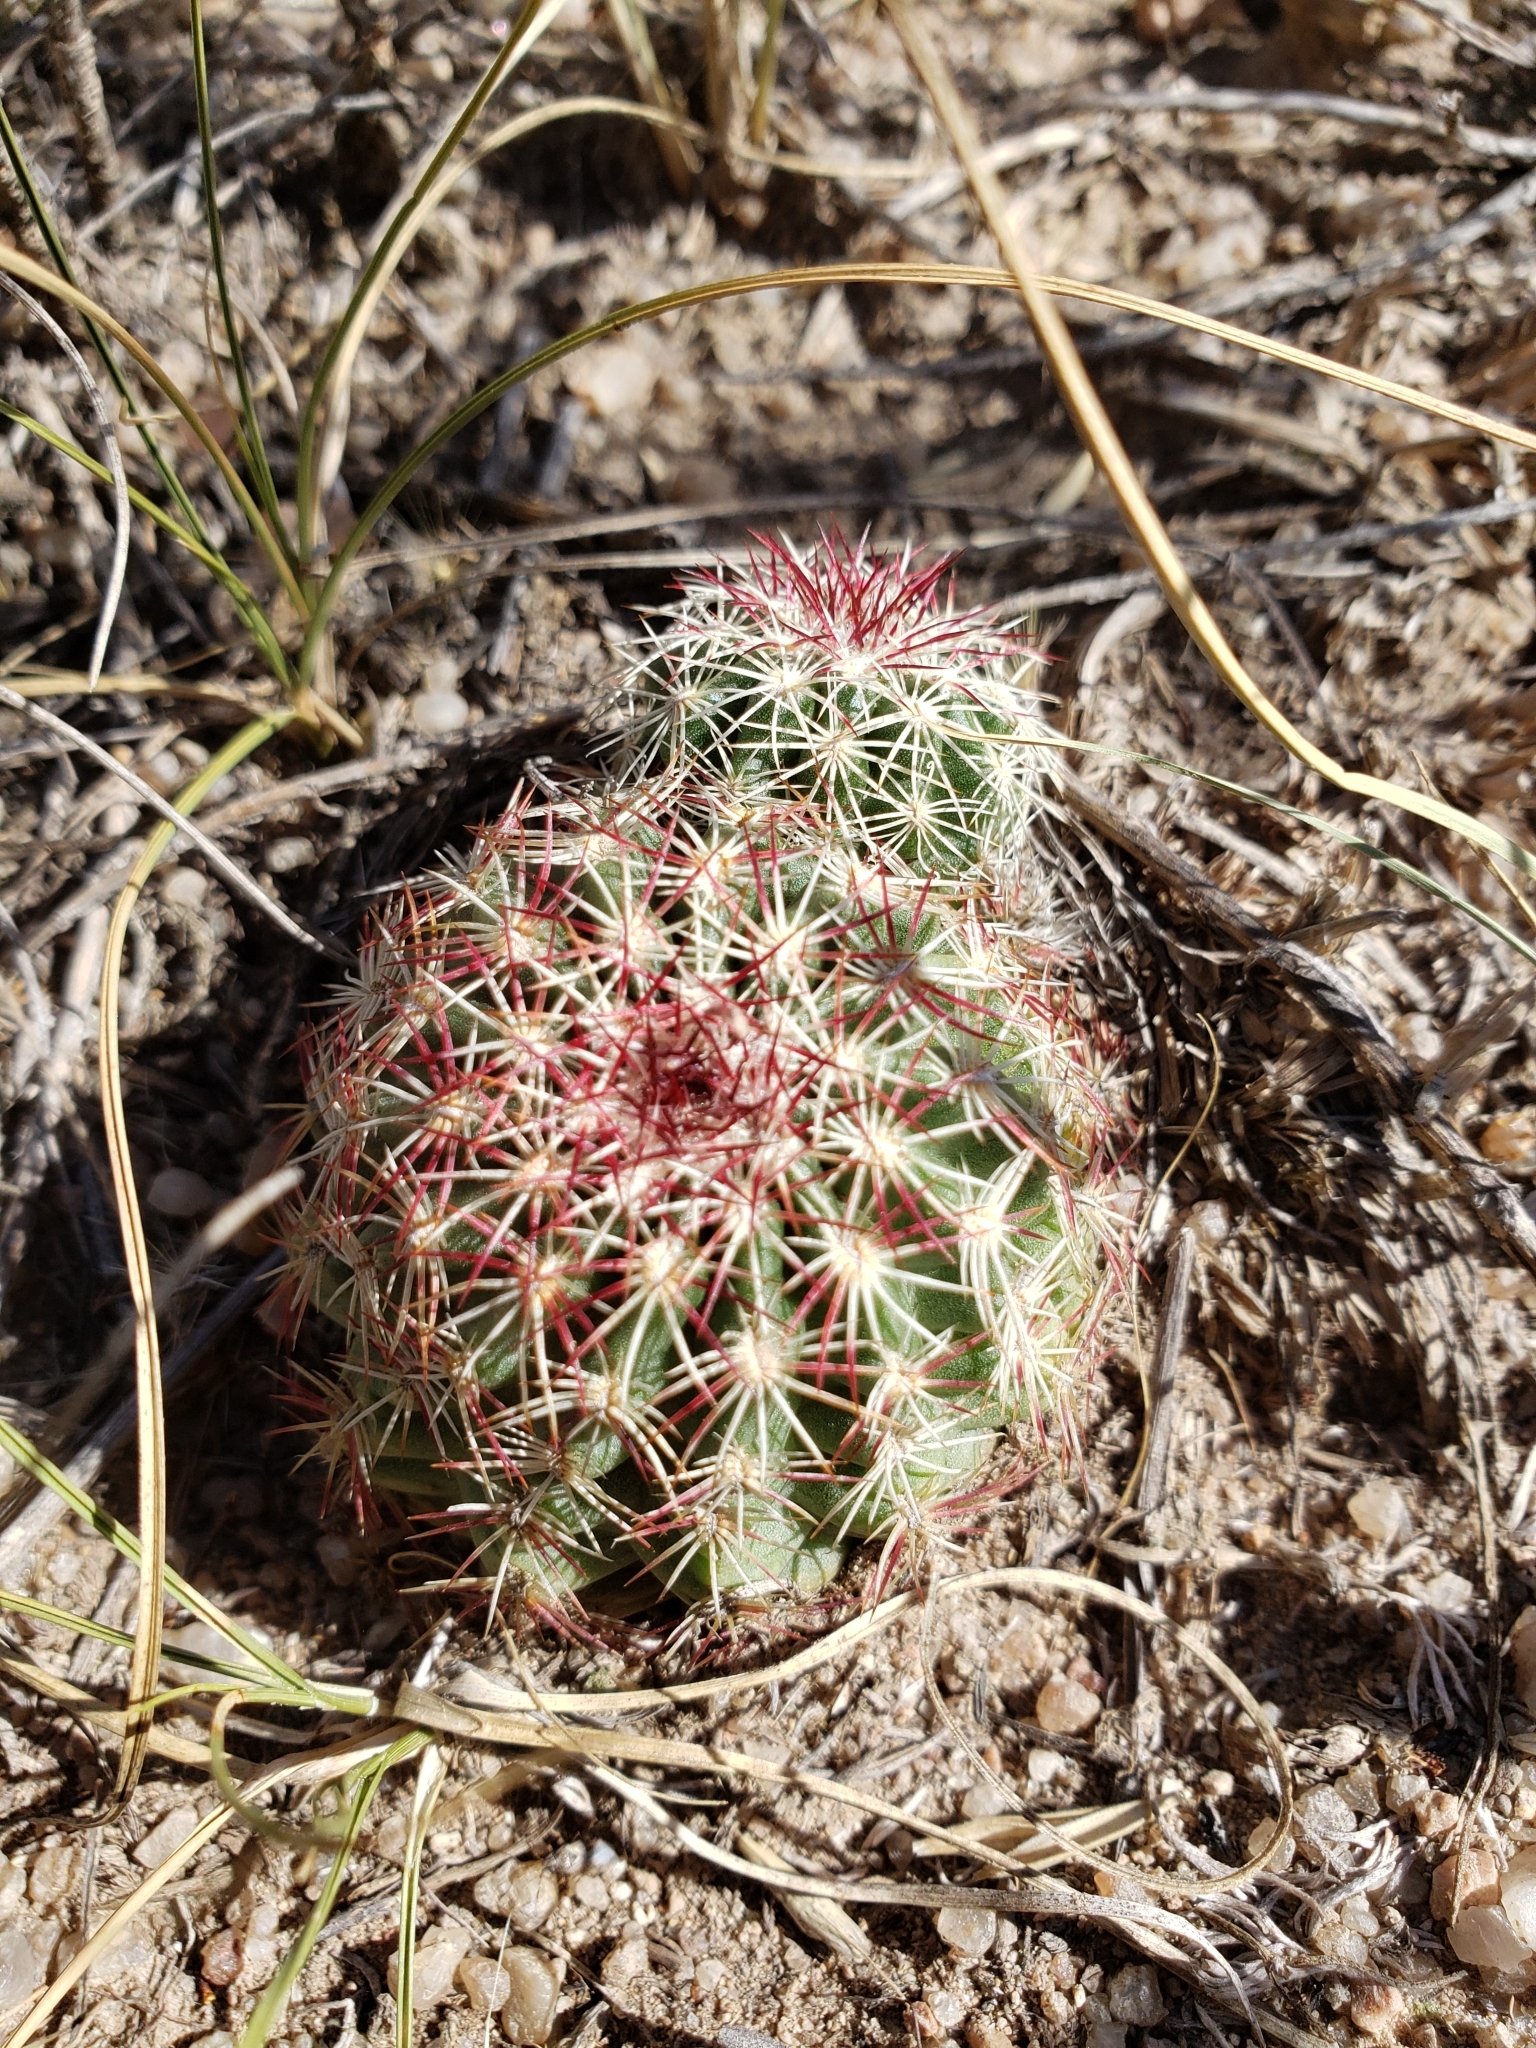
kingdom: Plantae
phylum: Tracheophyta
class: Magnoliopsida
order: Caryophyllales
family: Cactaceae
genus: Echinocereus
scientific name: Echinocereus viridiflorus
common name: Nylon hedgehog cactus
